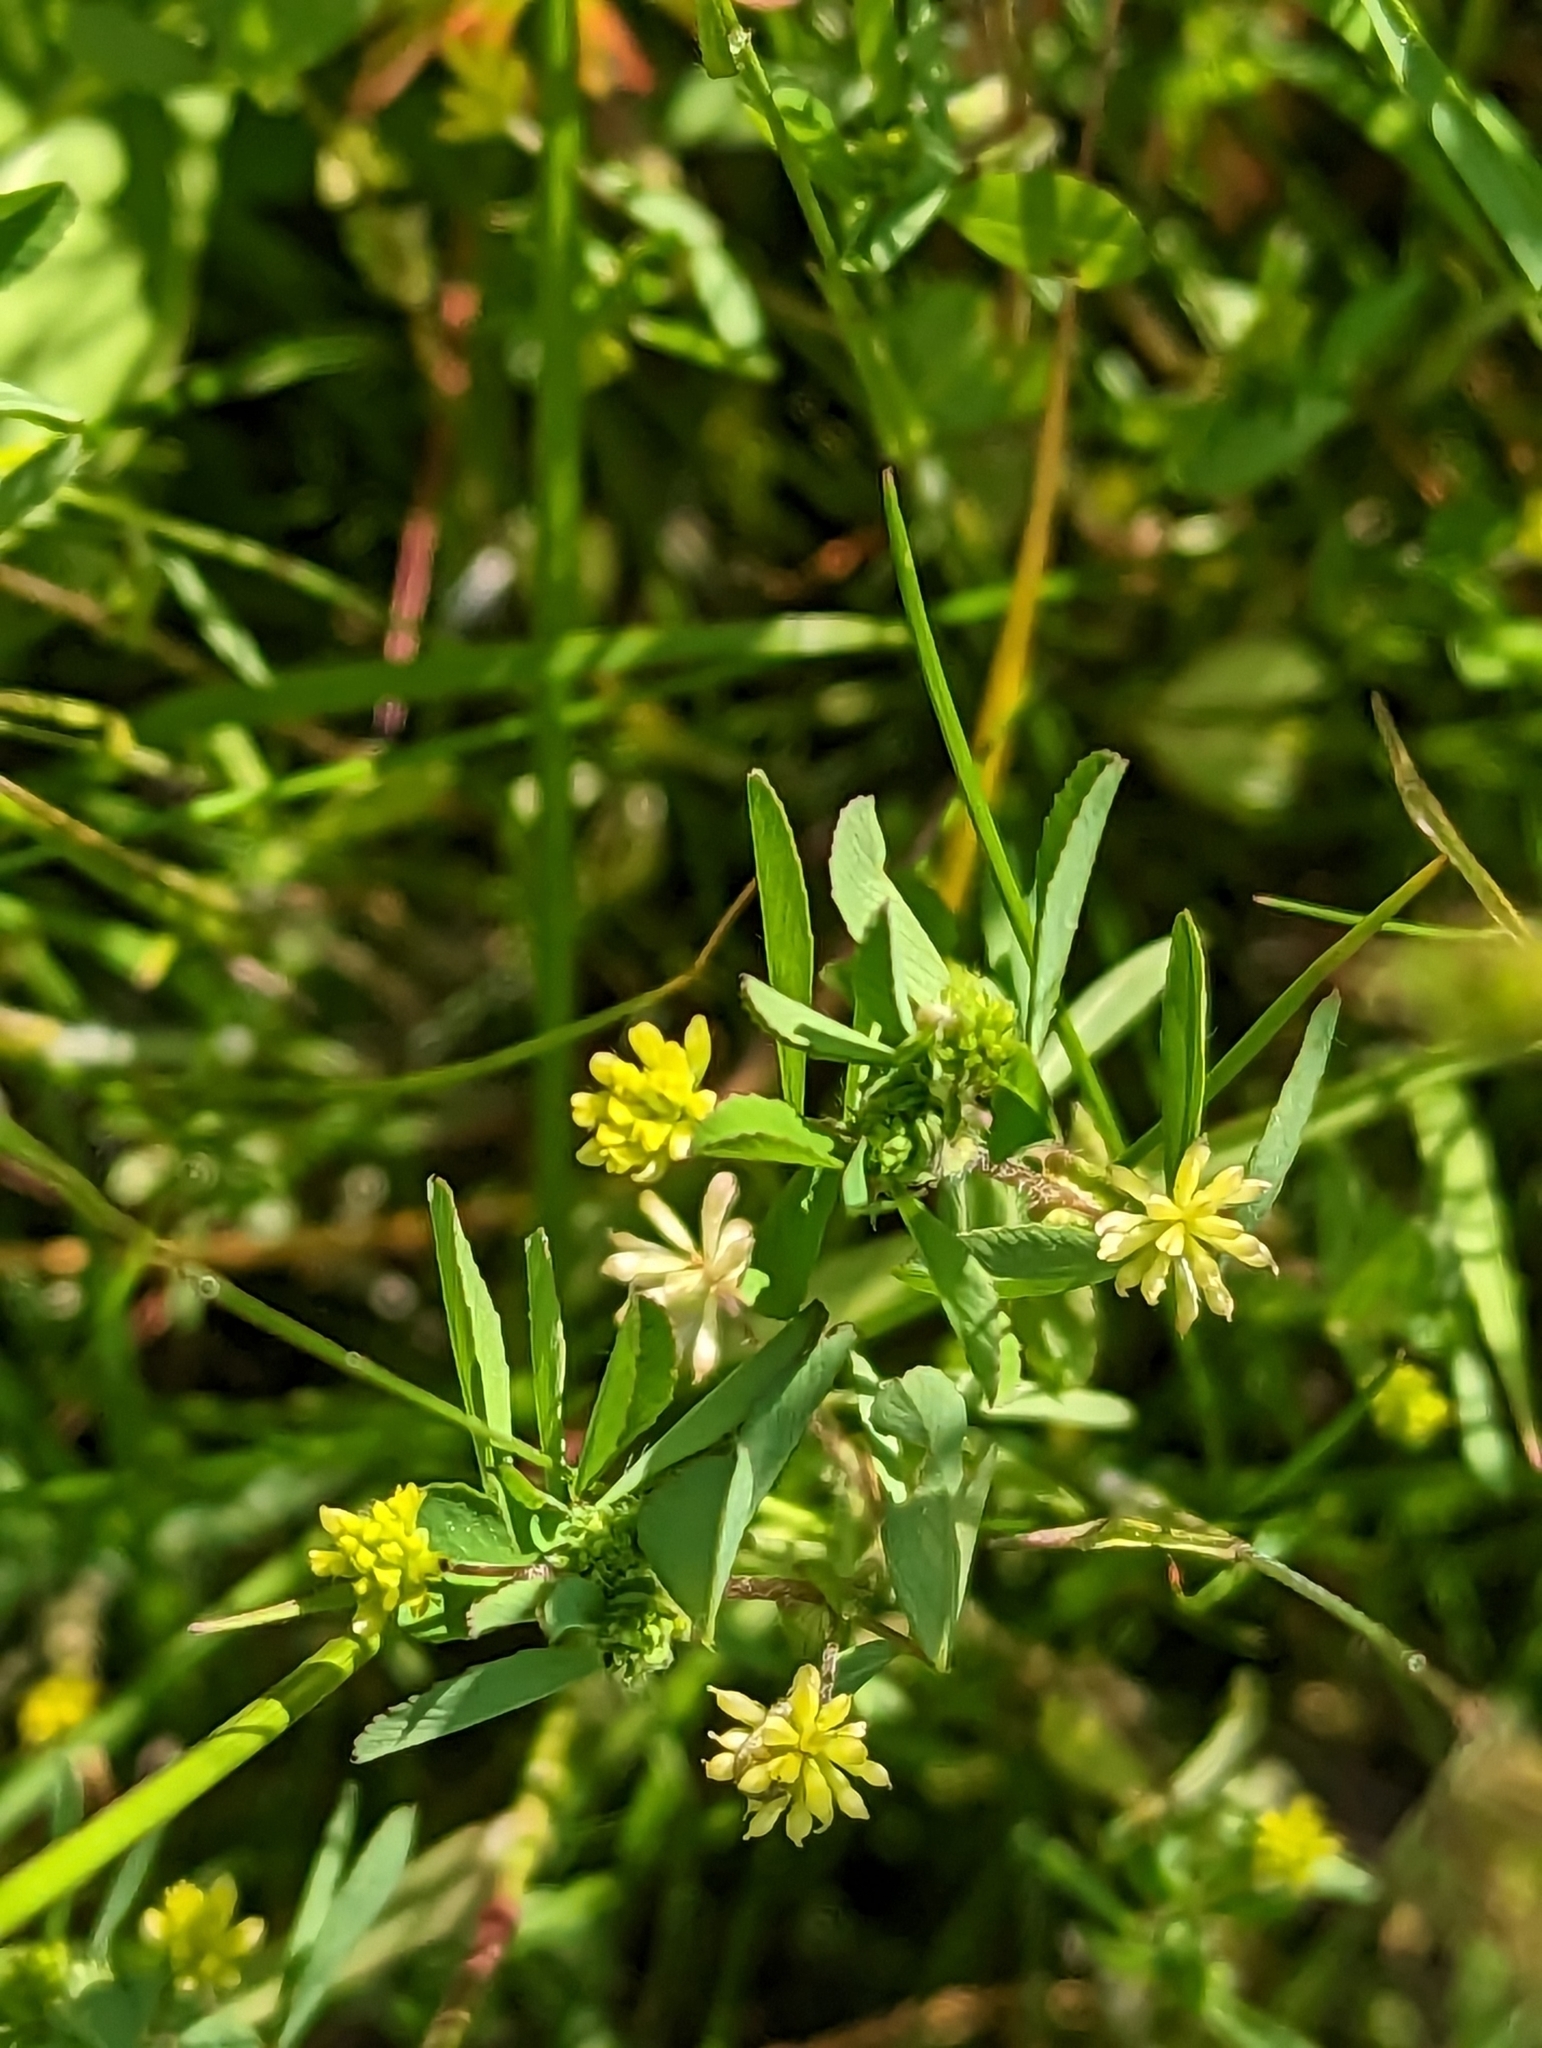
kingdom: Plantae
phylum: Tracheophyta
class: Magnoliopsida
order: Fabales
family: Fabaceae
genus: Trifolium
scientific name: Trifolium dubium
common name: Suckling clover
